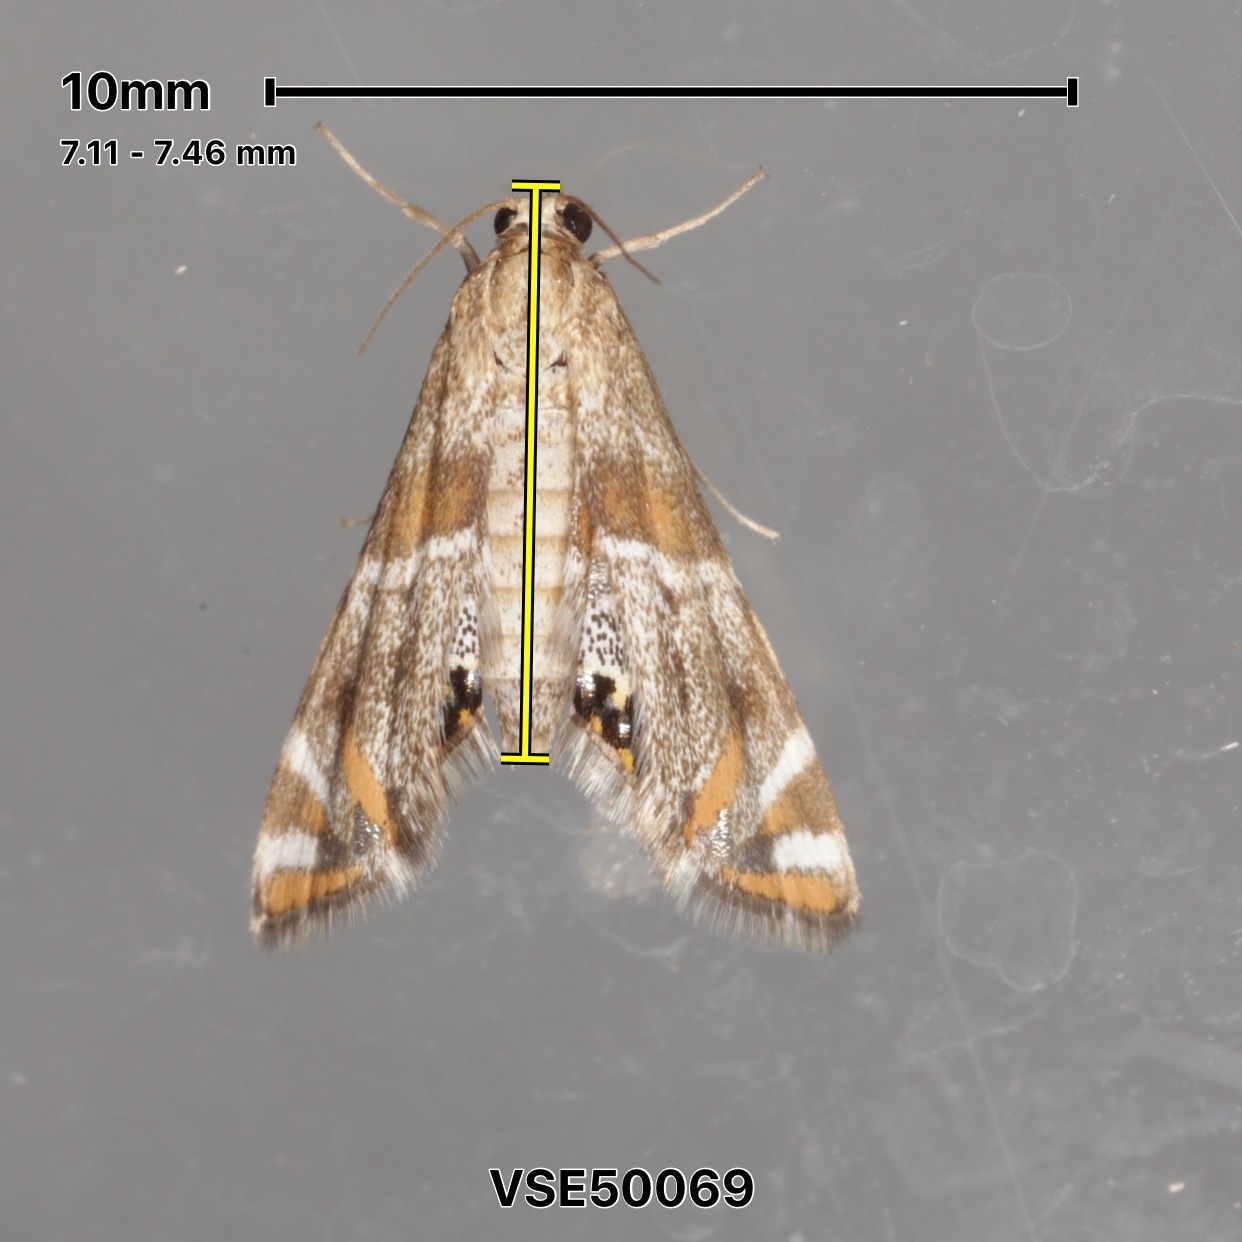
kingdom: Animalia
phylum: Arthropoda
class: Insecta
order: Lepidoptera
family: Crambidae
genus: Petrophila
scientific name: Petrophila jaliscalis
